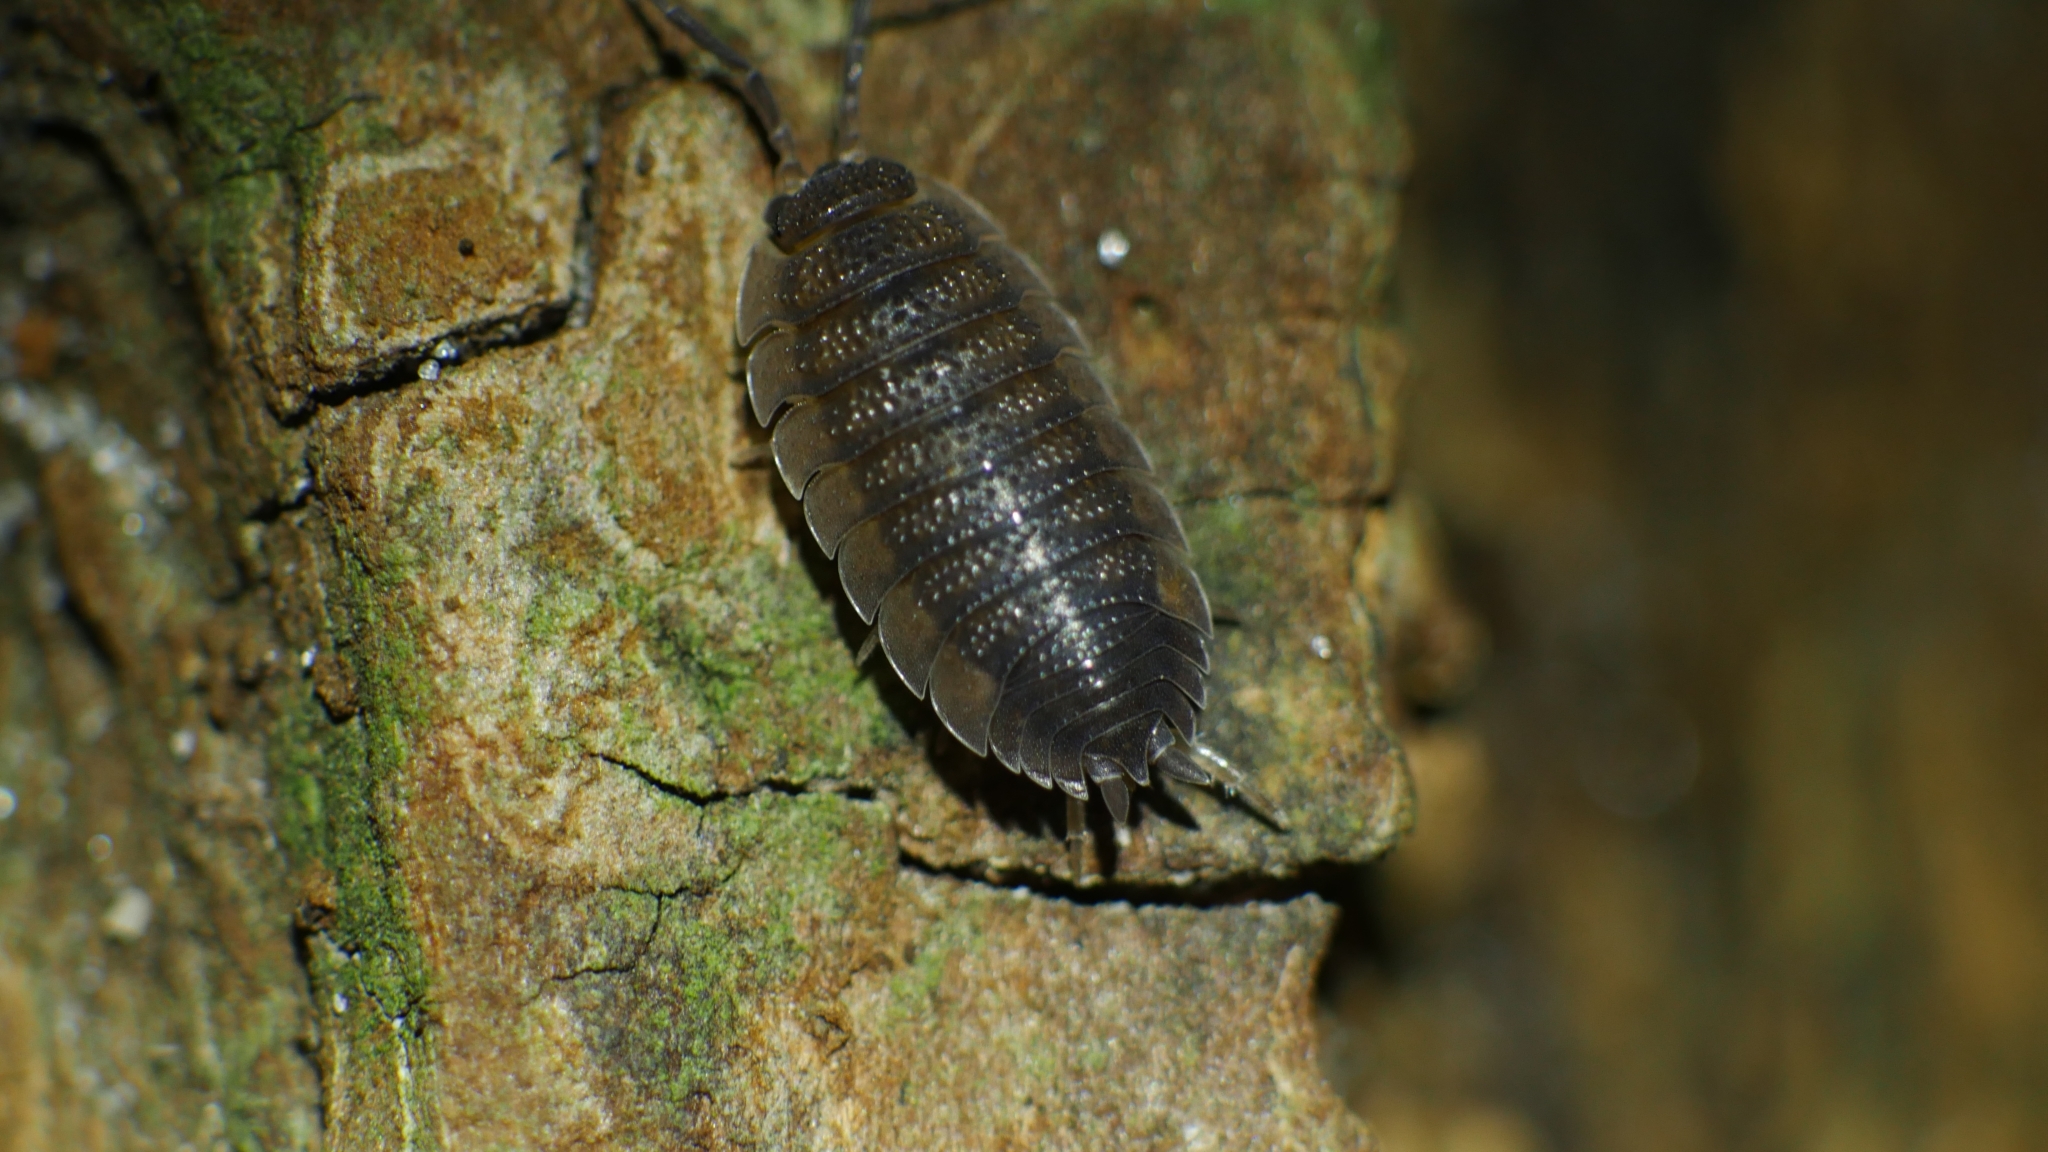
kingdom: Animalia
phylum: Arthropoda
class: Malacostraca
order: Isopoda
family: Porcellionidae
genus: Porcellio
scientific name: Porcellio scaber
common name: Common rough woodlouse
